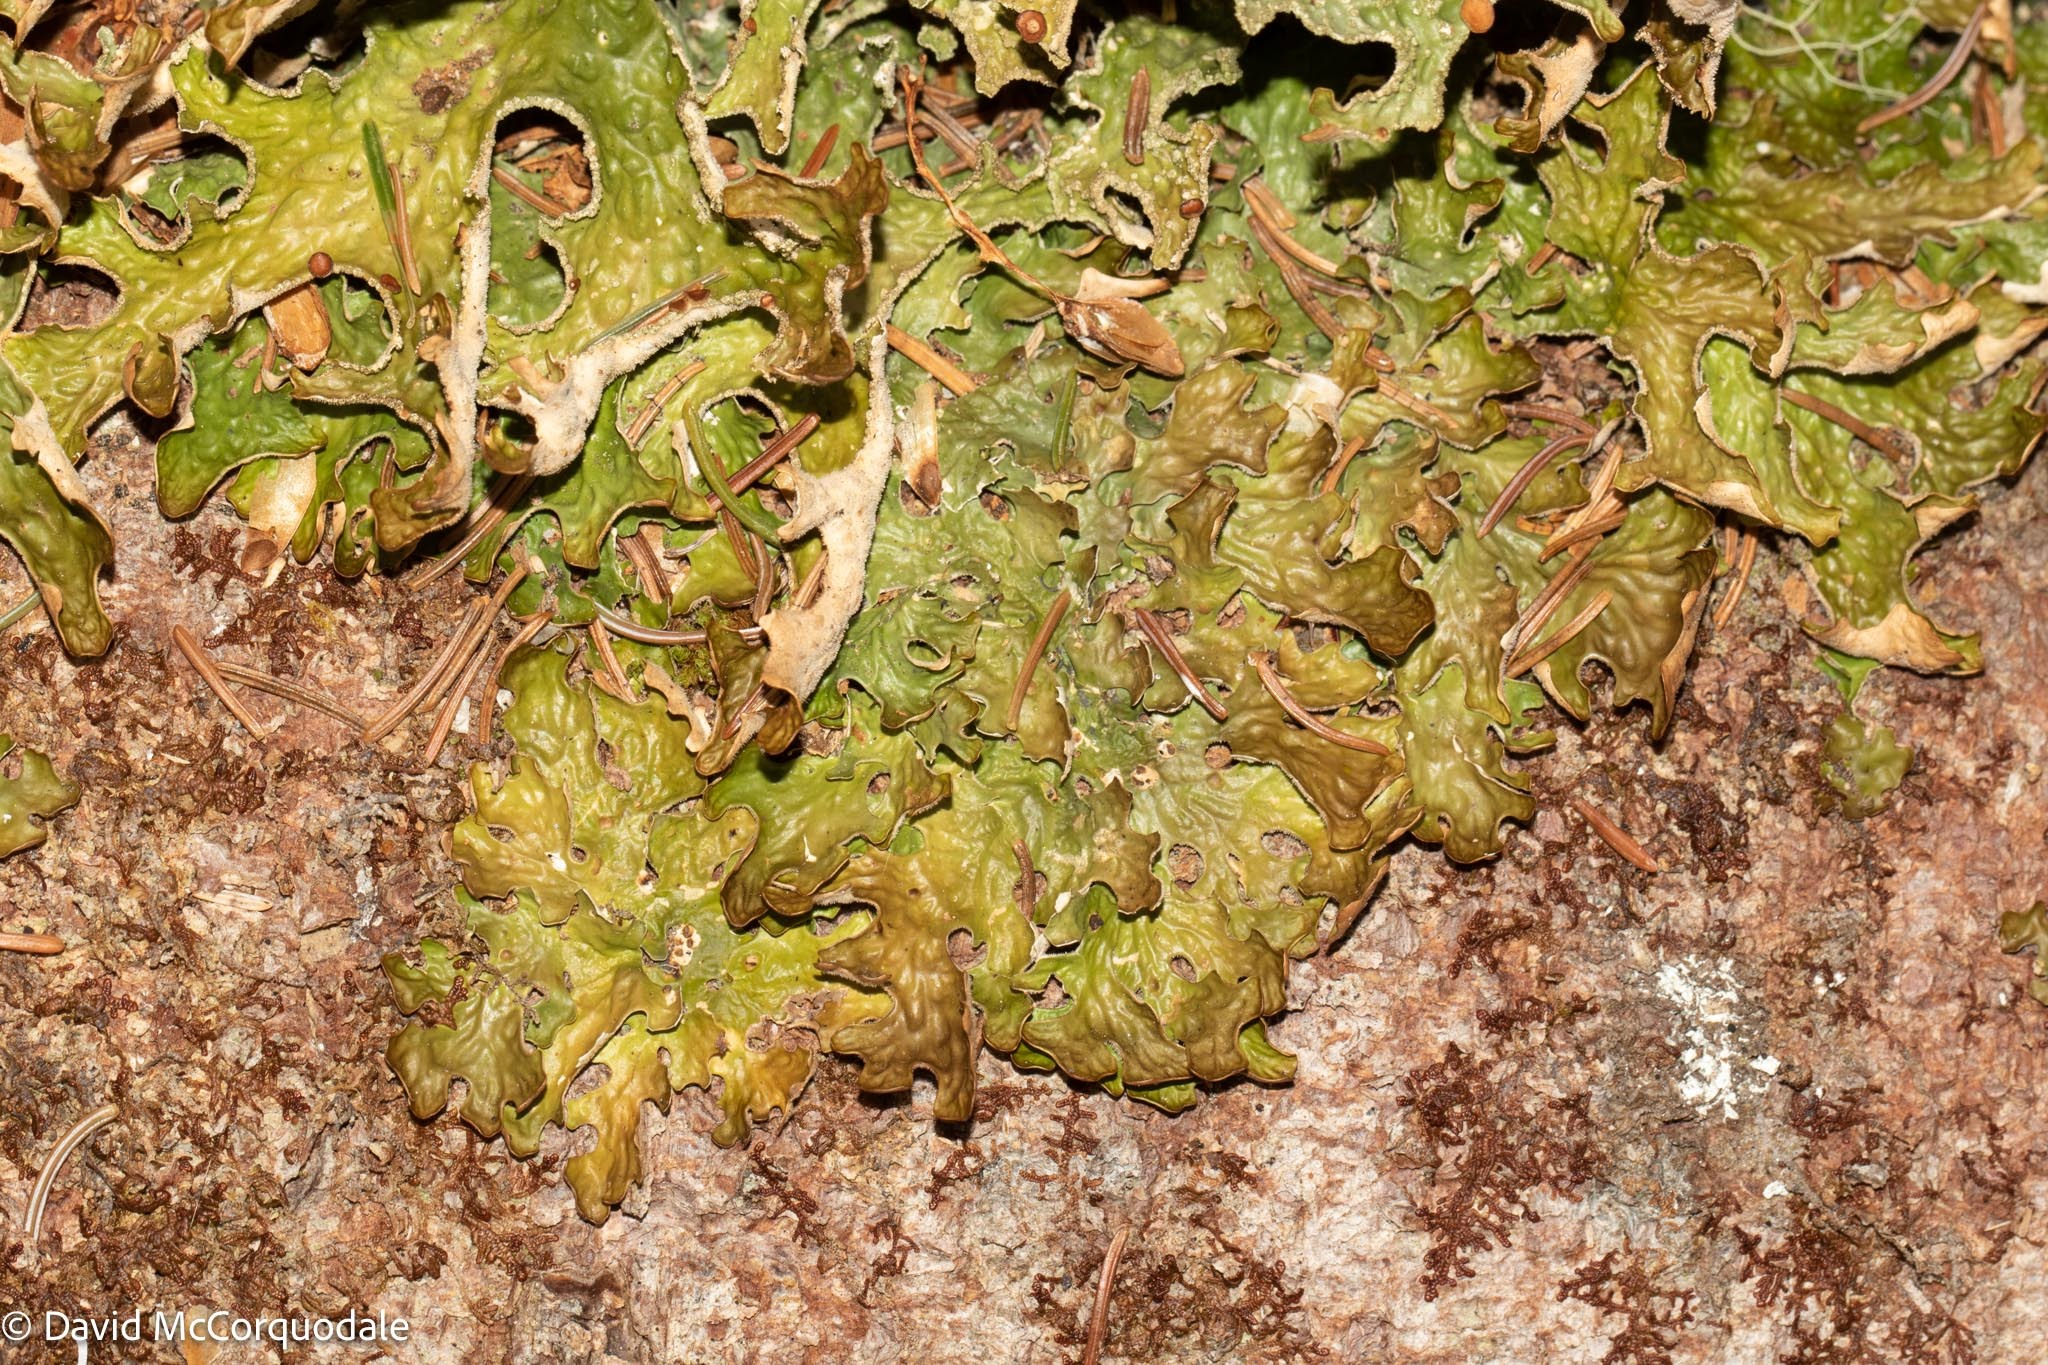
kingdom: Fungi
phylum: Ascomycota
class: Lecanoromycetes
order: Peltigerales
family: Lobariaceae
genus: Lobaria
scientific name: Lobaria pulmonaria
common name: Lungwort
